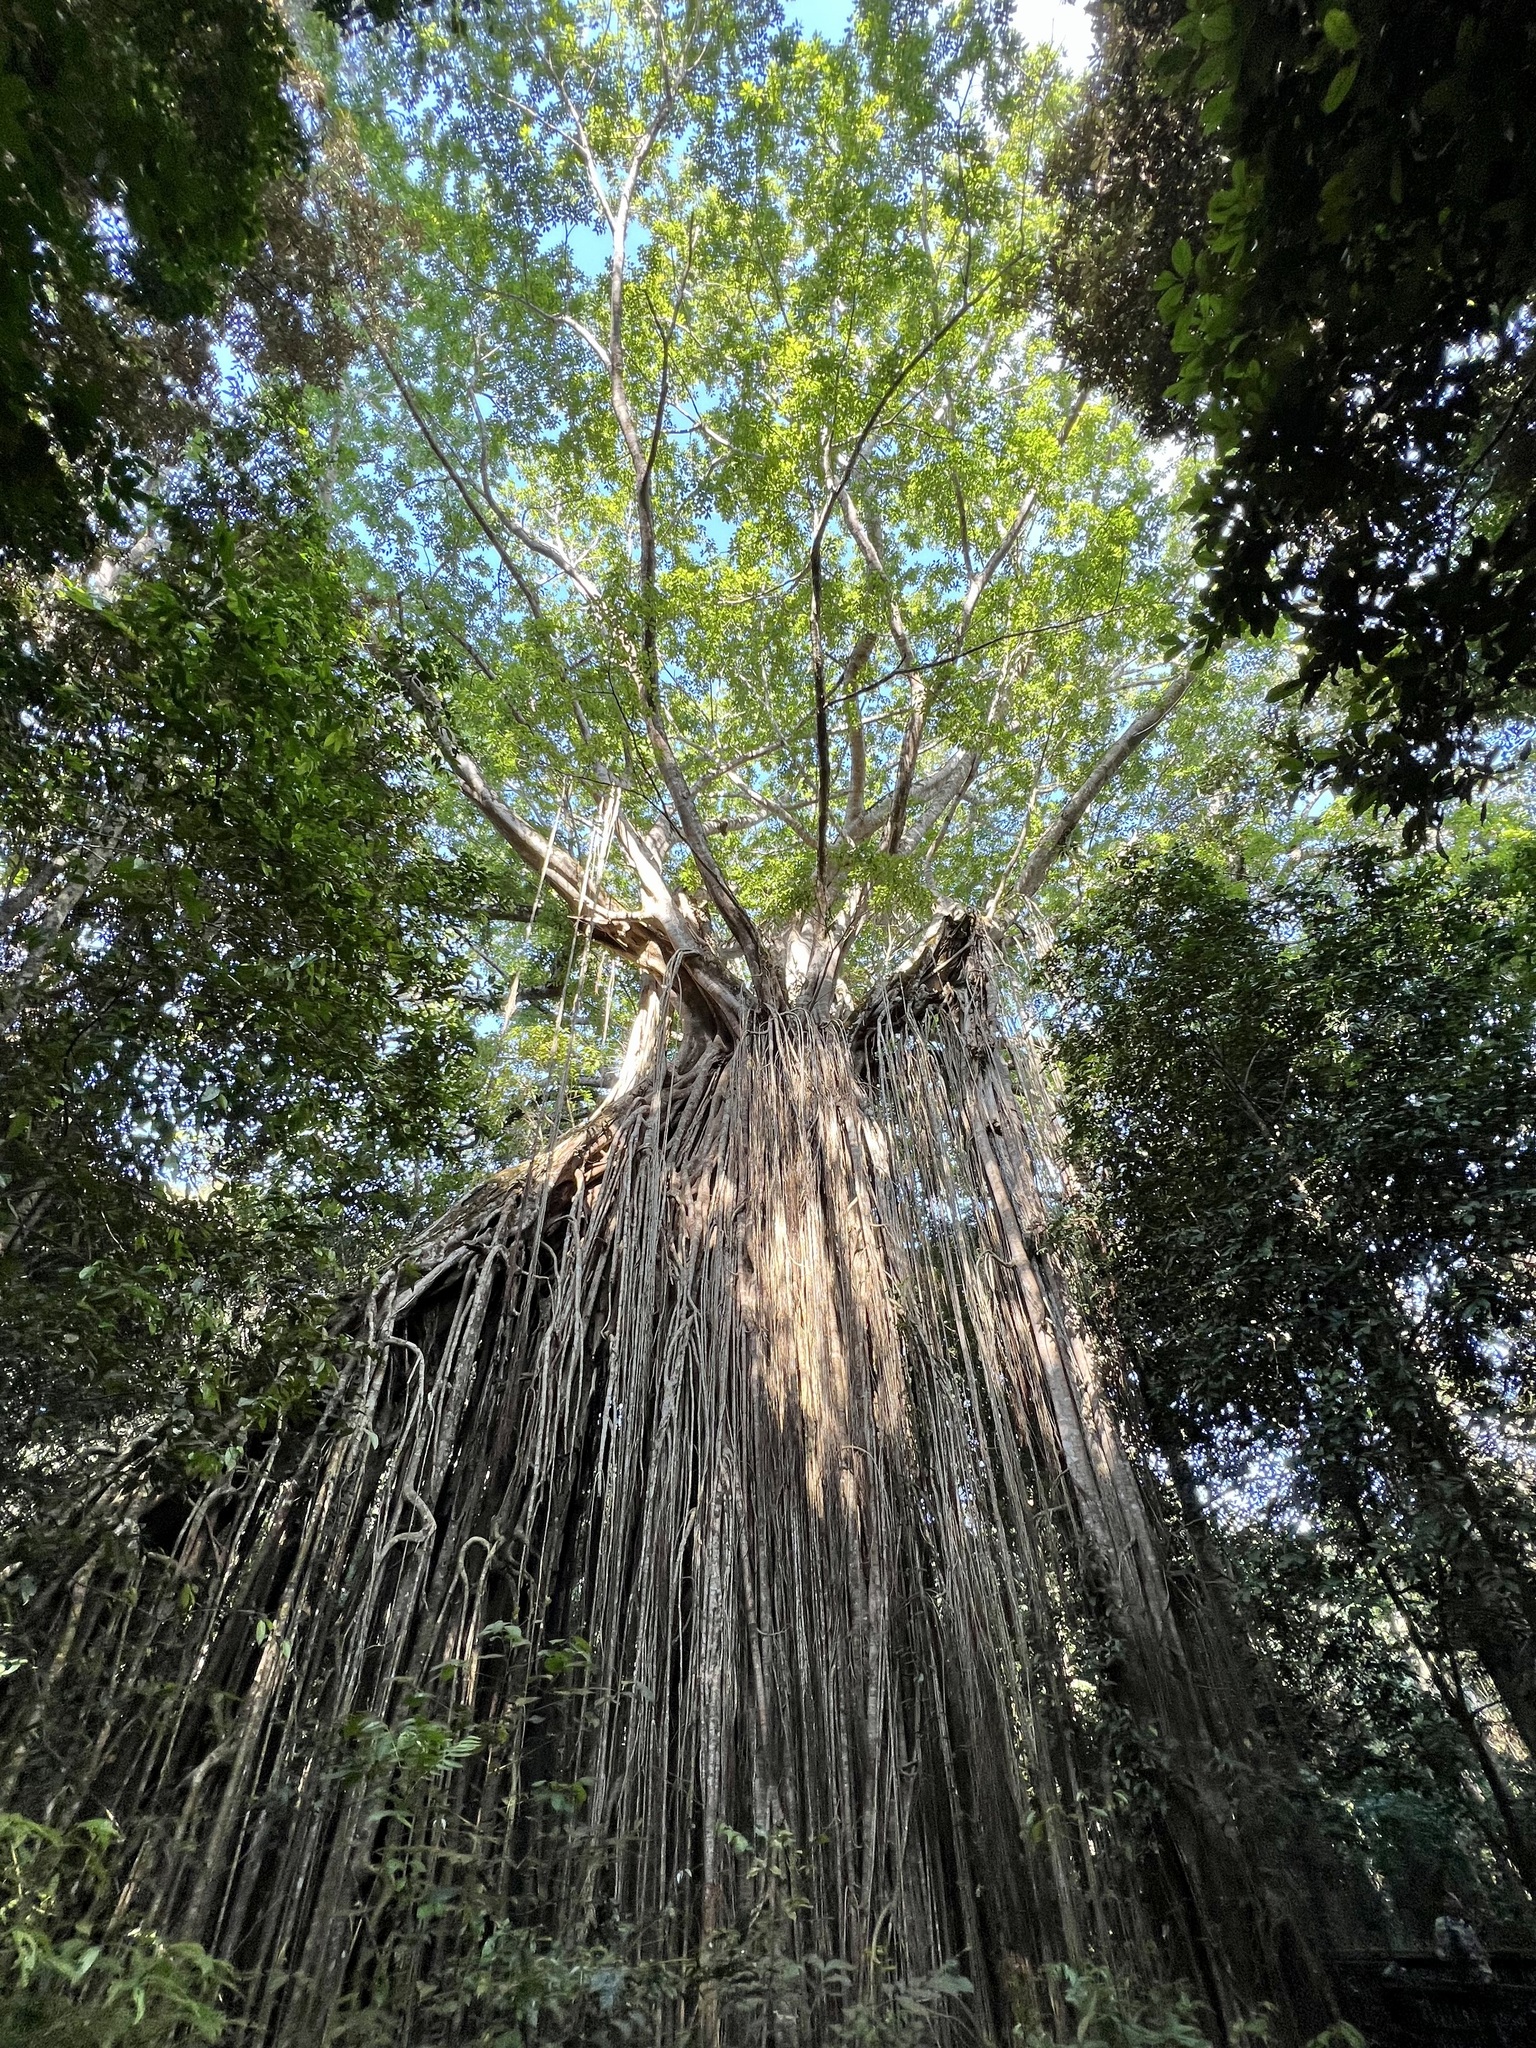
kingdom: Plantae
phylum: Tracheophyta
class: Magnoliopsida
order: Rosales
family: Moraceae
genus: Ficus
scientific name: Ficus virens
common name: Spotted fig
